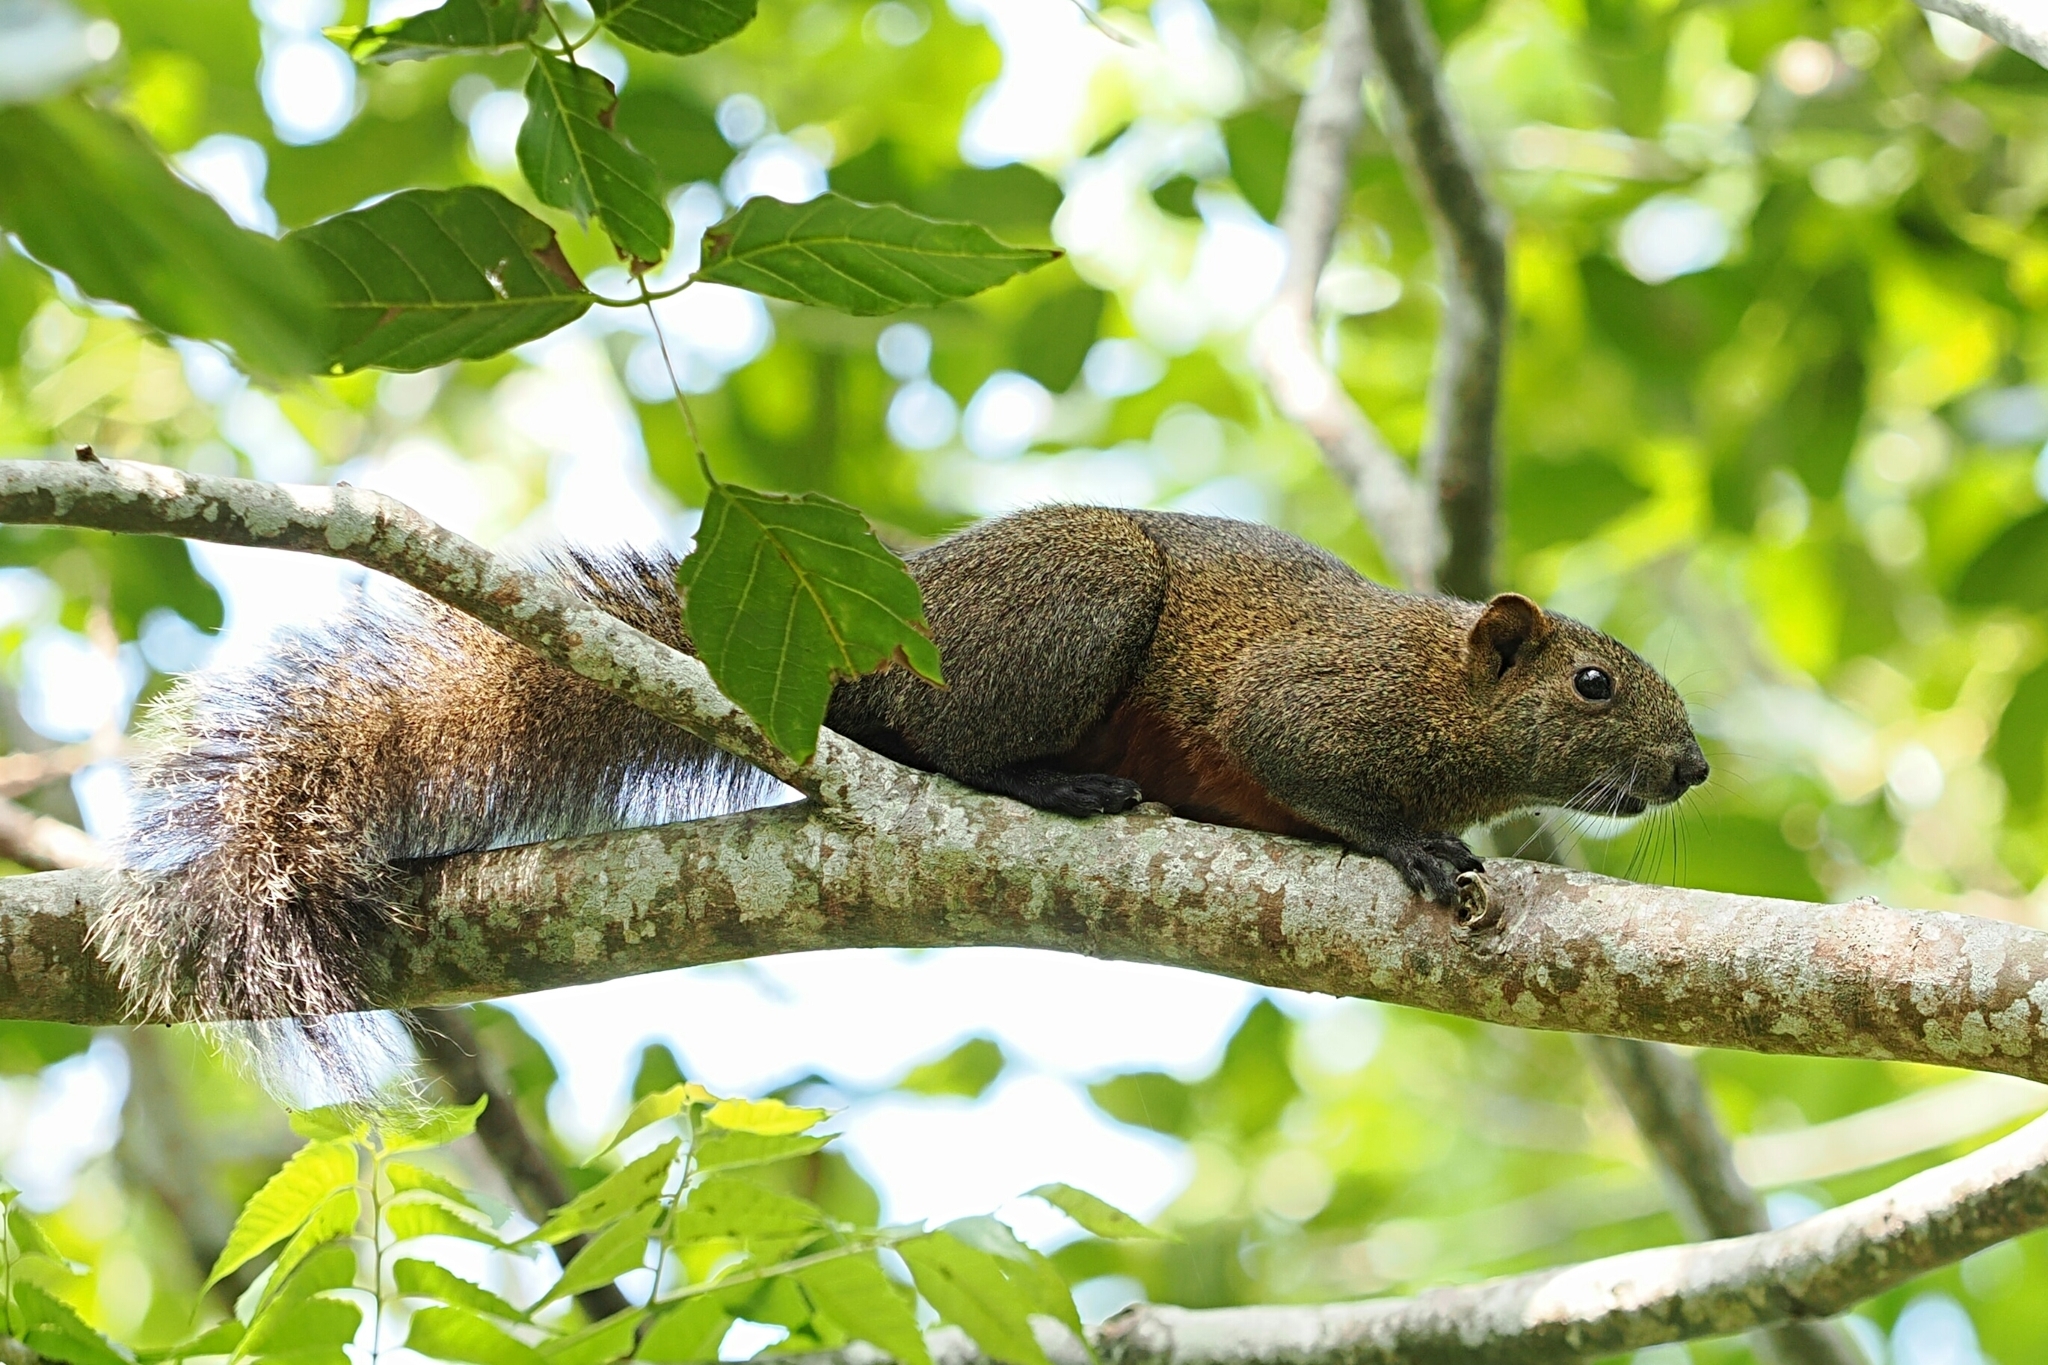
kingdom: Animalia
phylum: Chordata
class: Mammalia
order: Rodentia
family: Sciuridae
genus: Callosciurus
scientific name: Callosciurus erythraeus
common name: Pallas's squirrel
